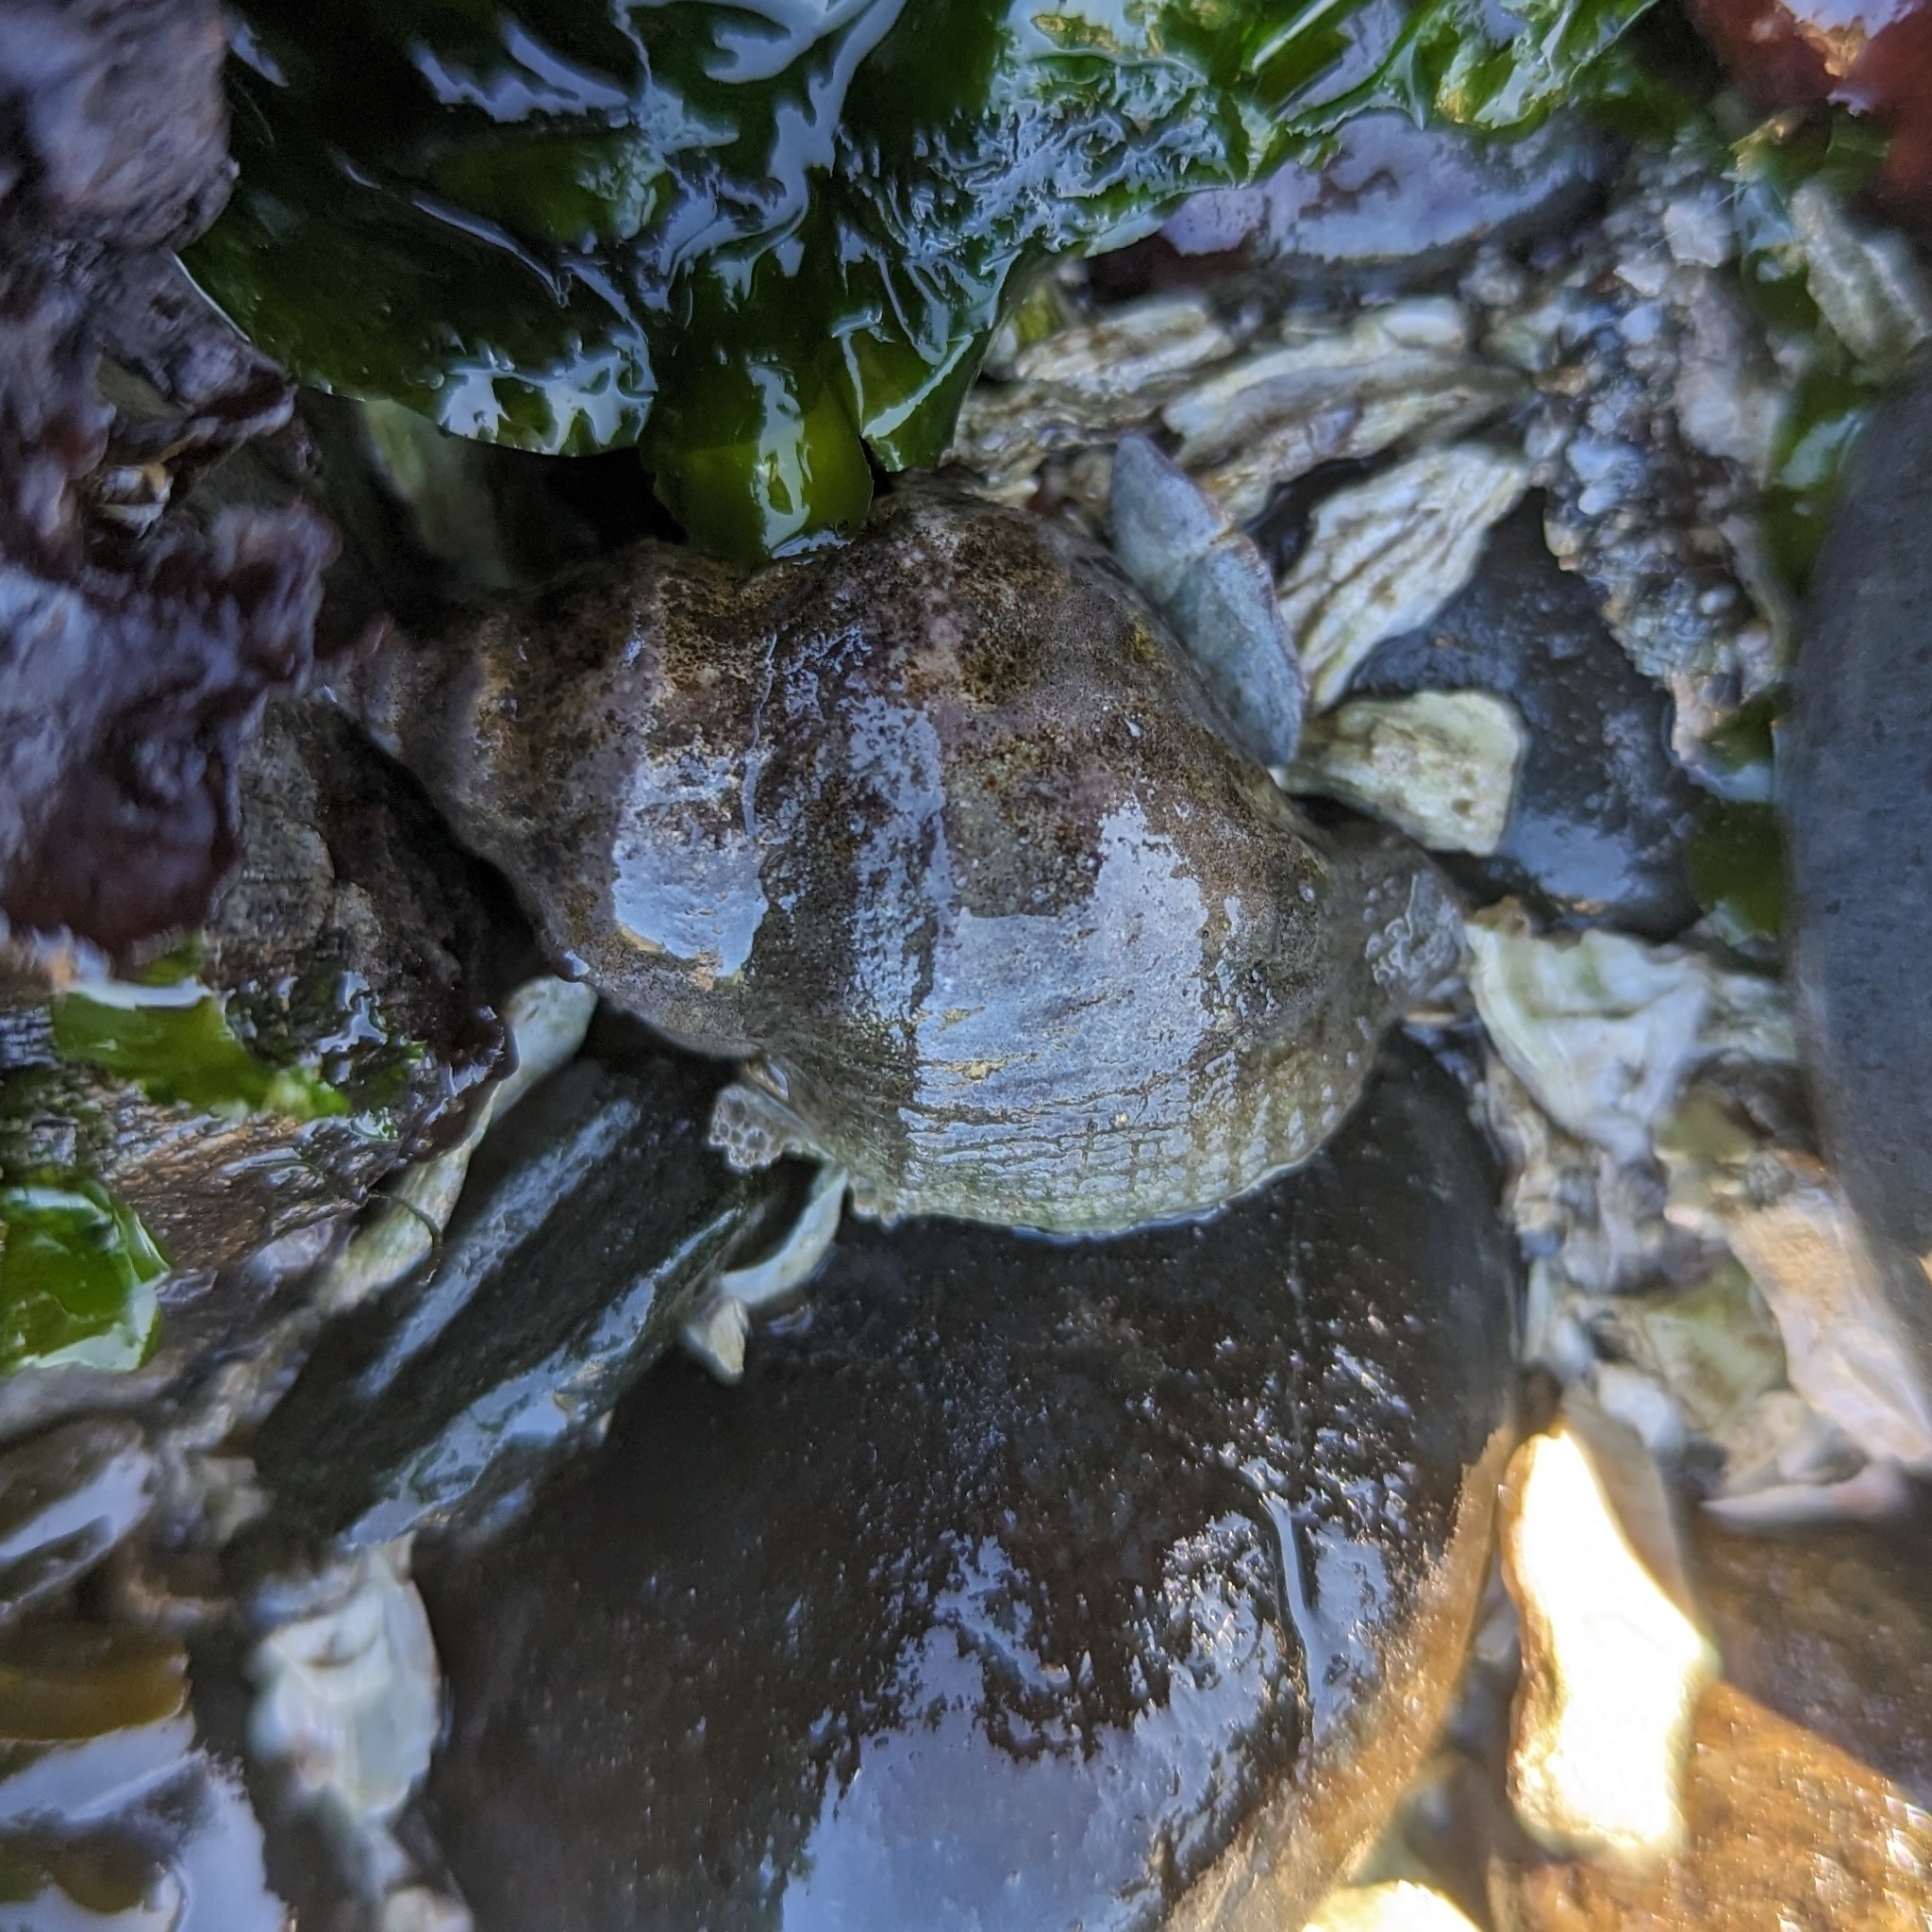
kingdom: Animalia
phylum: Mollusca
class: Gastropoda
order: Neogastropoda
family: Muricidae
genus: Nucella
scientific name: Nucella lamellosa
